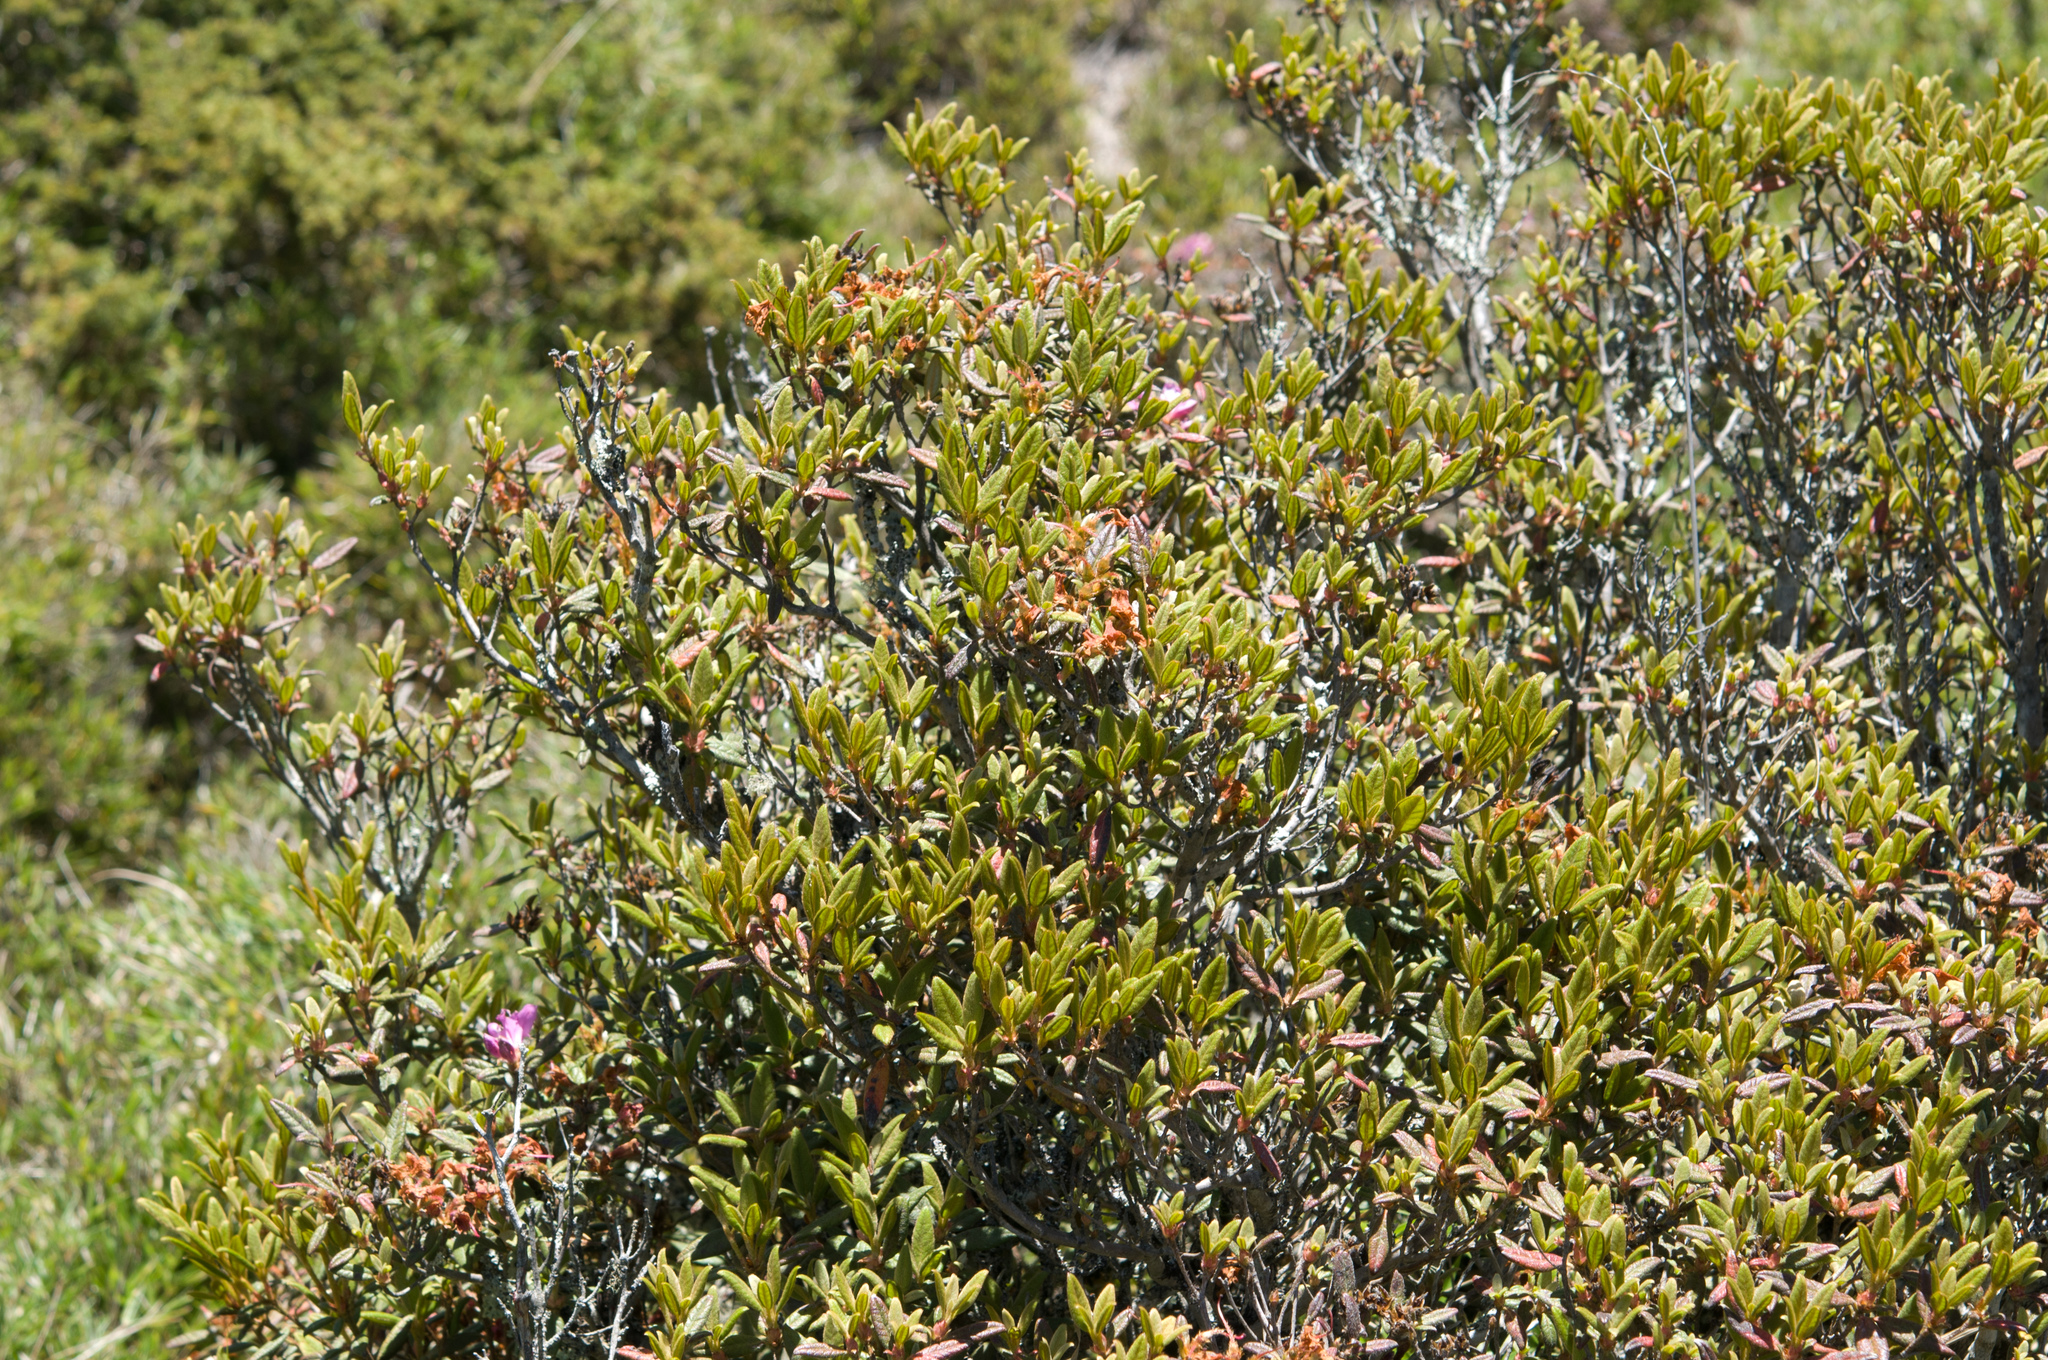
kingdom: Plantae
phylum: Tracheophyta
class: Magnoliopsida
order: Ericales
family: Ericaceae
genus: Rhododendron
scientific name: Rhododendron rubropilosum
